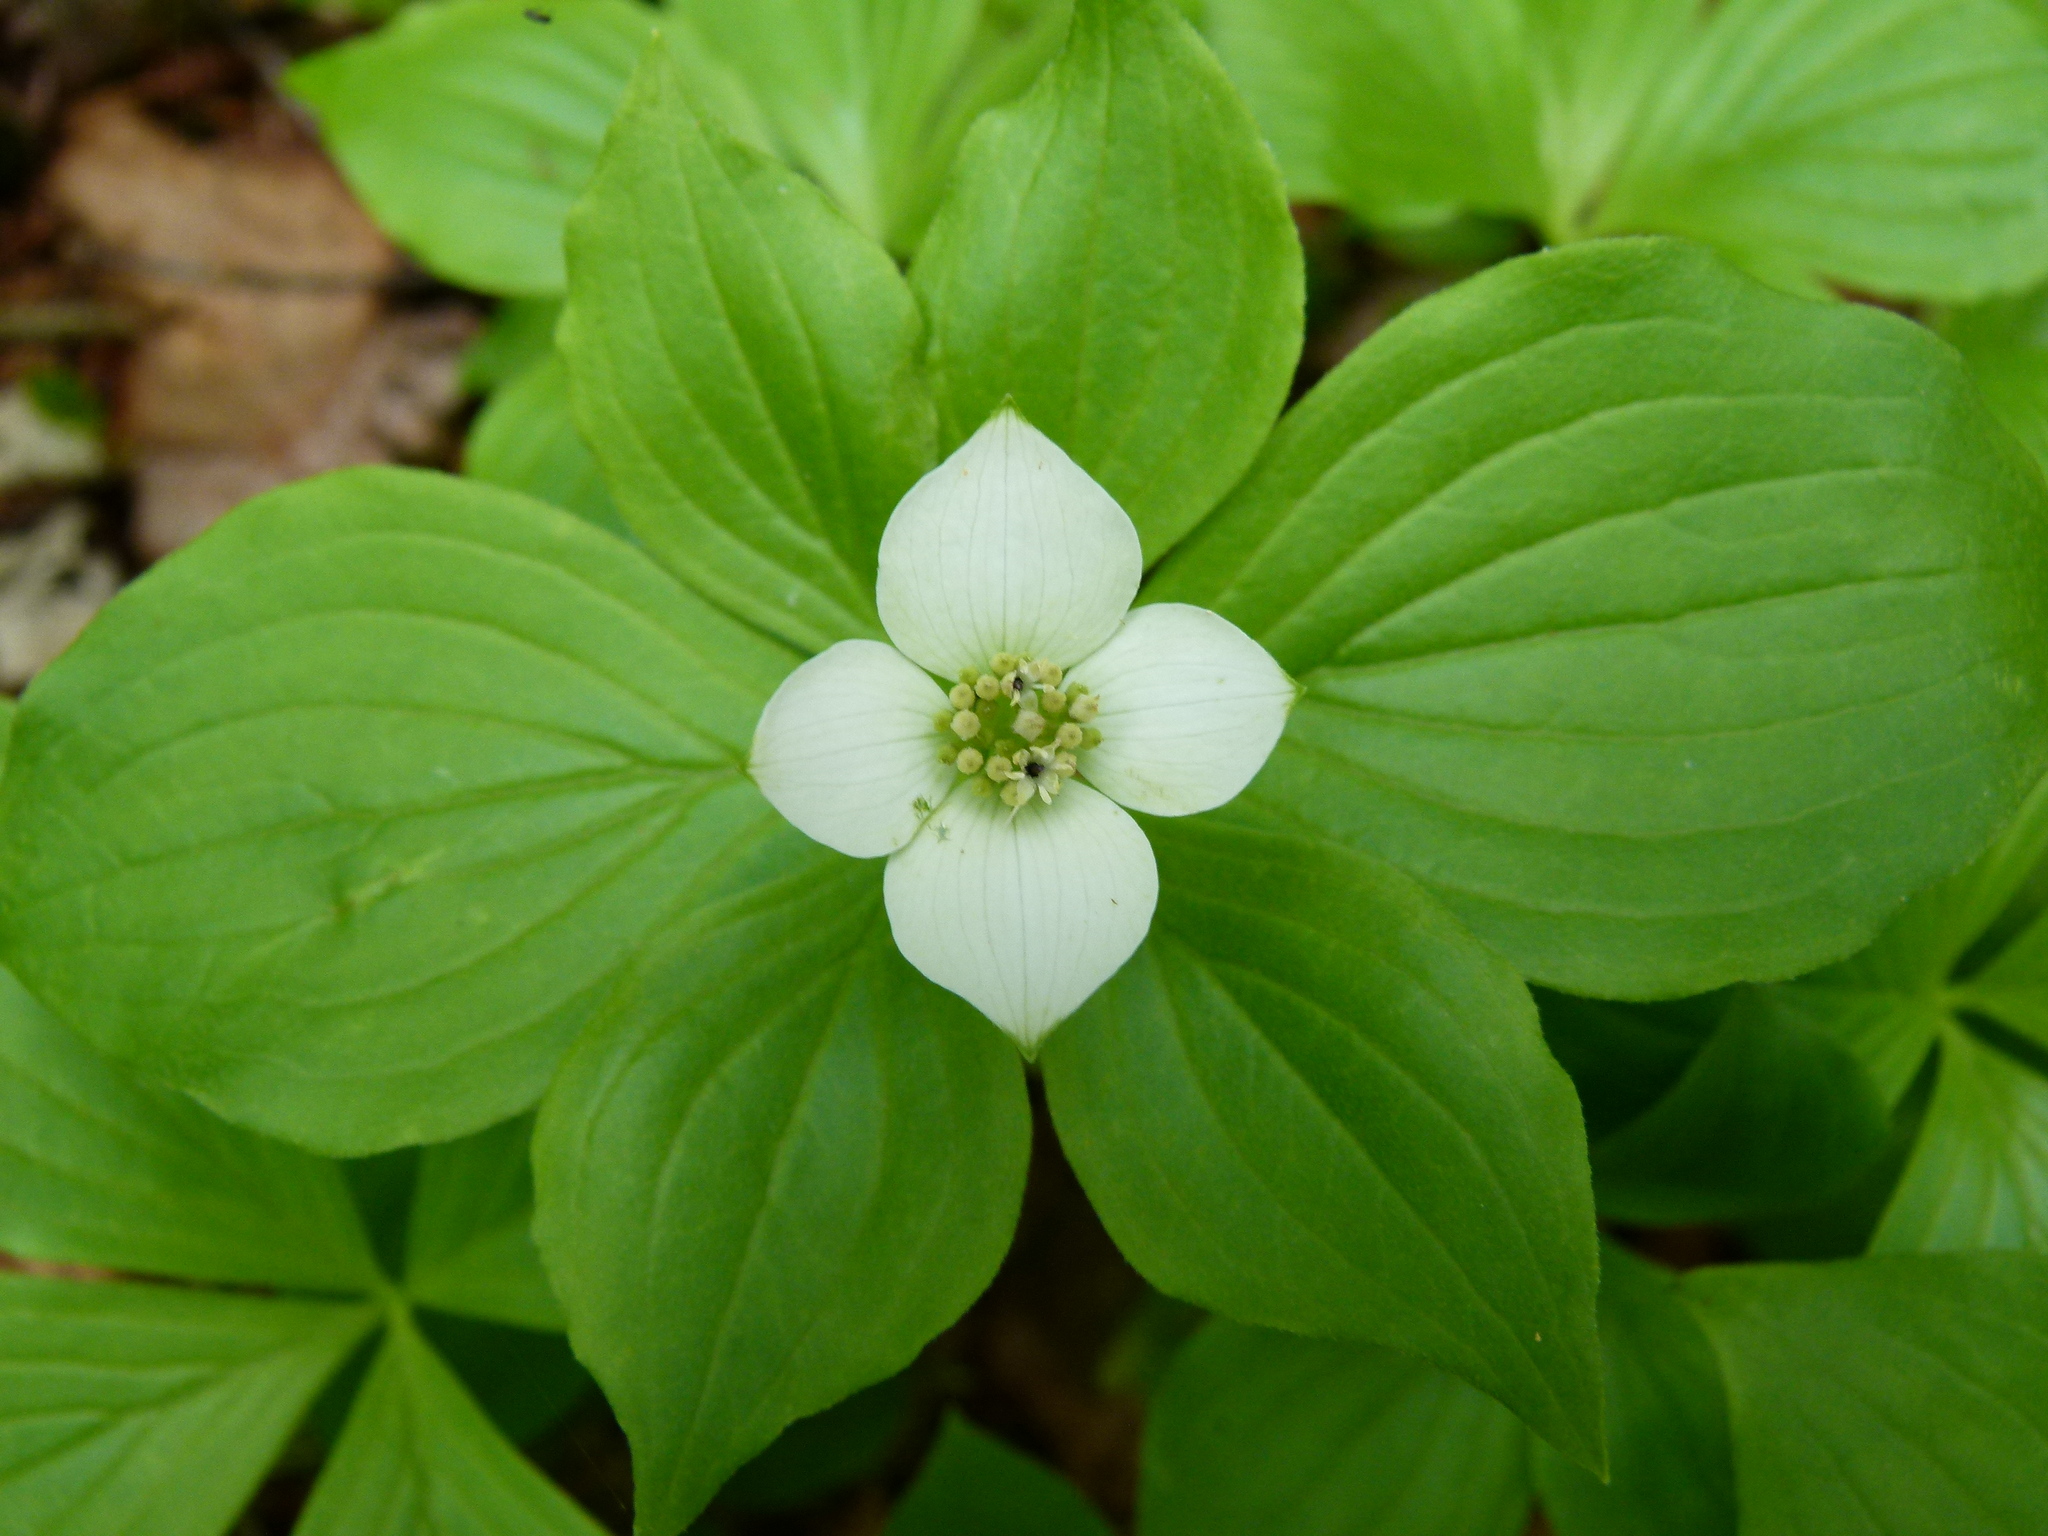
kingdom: Plantae
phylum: Tracheophyta
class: Magnoliopsida
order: Cornales
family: Cornaceae
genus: Cornus
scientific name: Cornus canadensis
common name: Creeping dogwood
